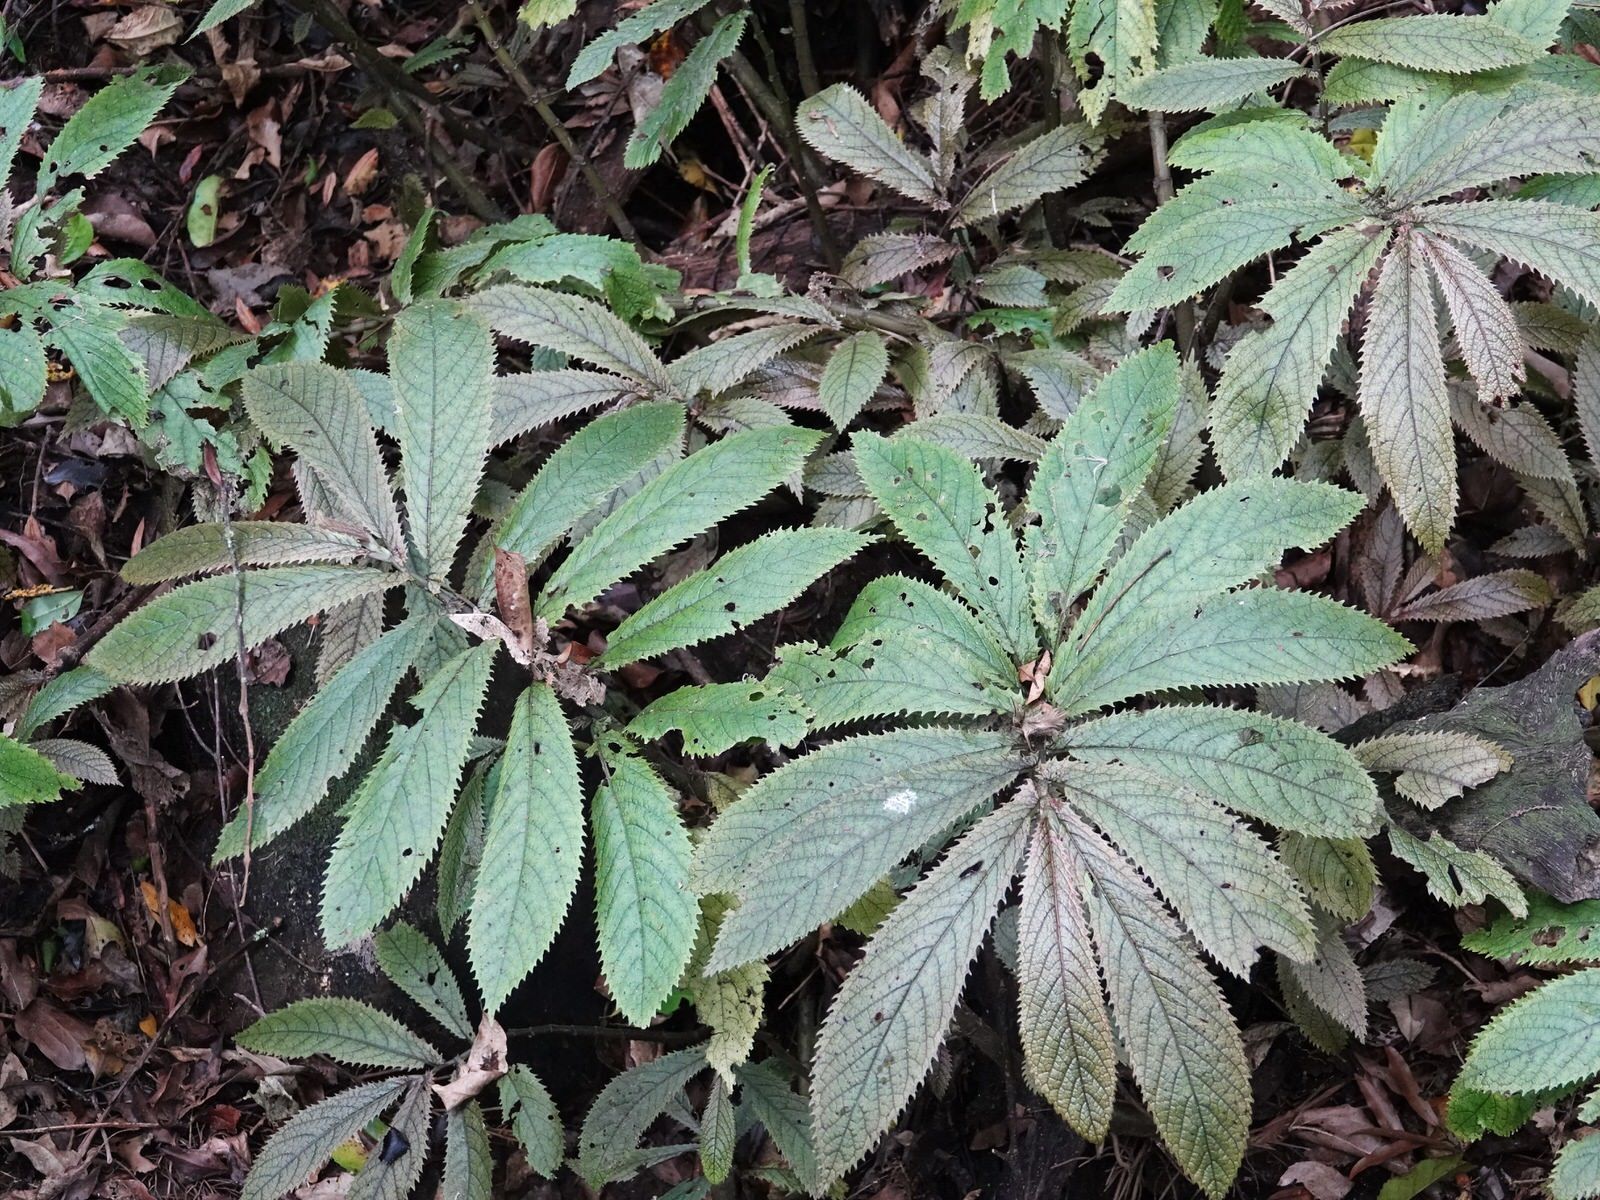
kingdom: Plantae
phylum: Tracheophyta
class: Magnoliopsida
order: Rosales
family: Urticaceae
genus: Elatostema
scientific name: Elatostema rugosum
